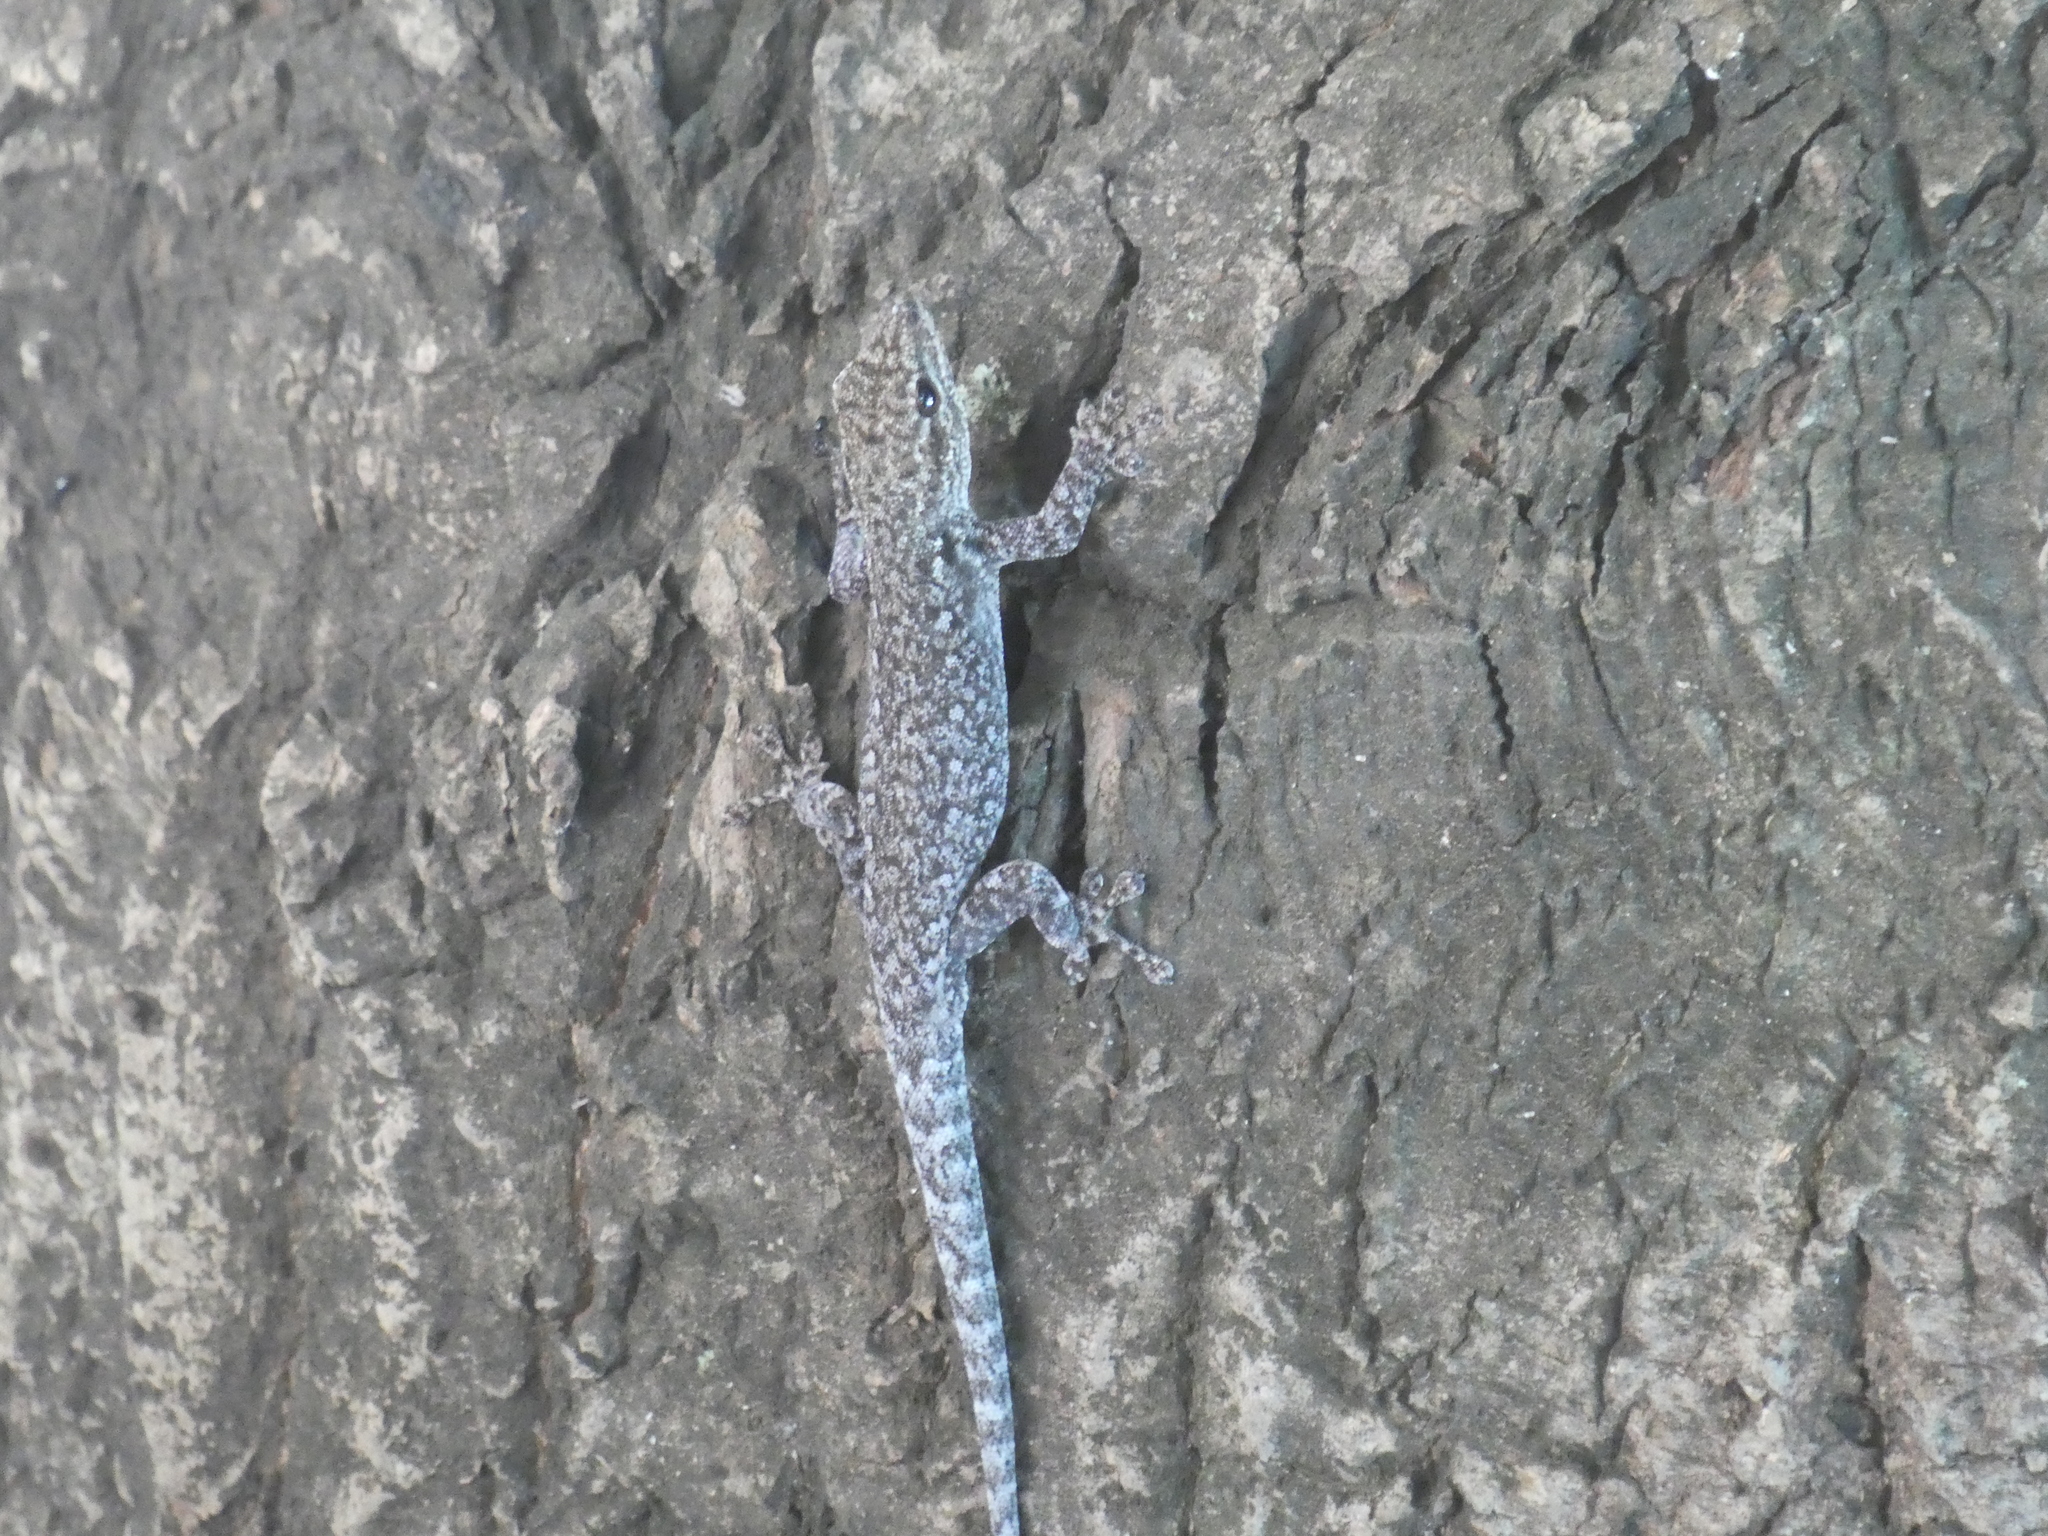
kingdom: Animalia
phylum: Chordata
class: Squamata
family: Gekkonidae
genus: Lygodactylus
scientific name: Lygodactylus chobiensis
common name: Okavango dwarf gecko
